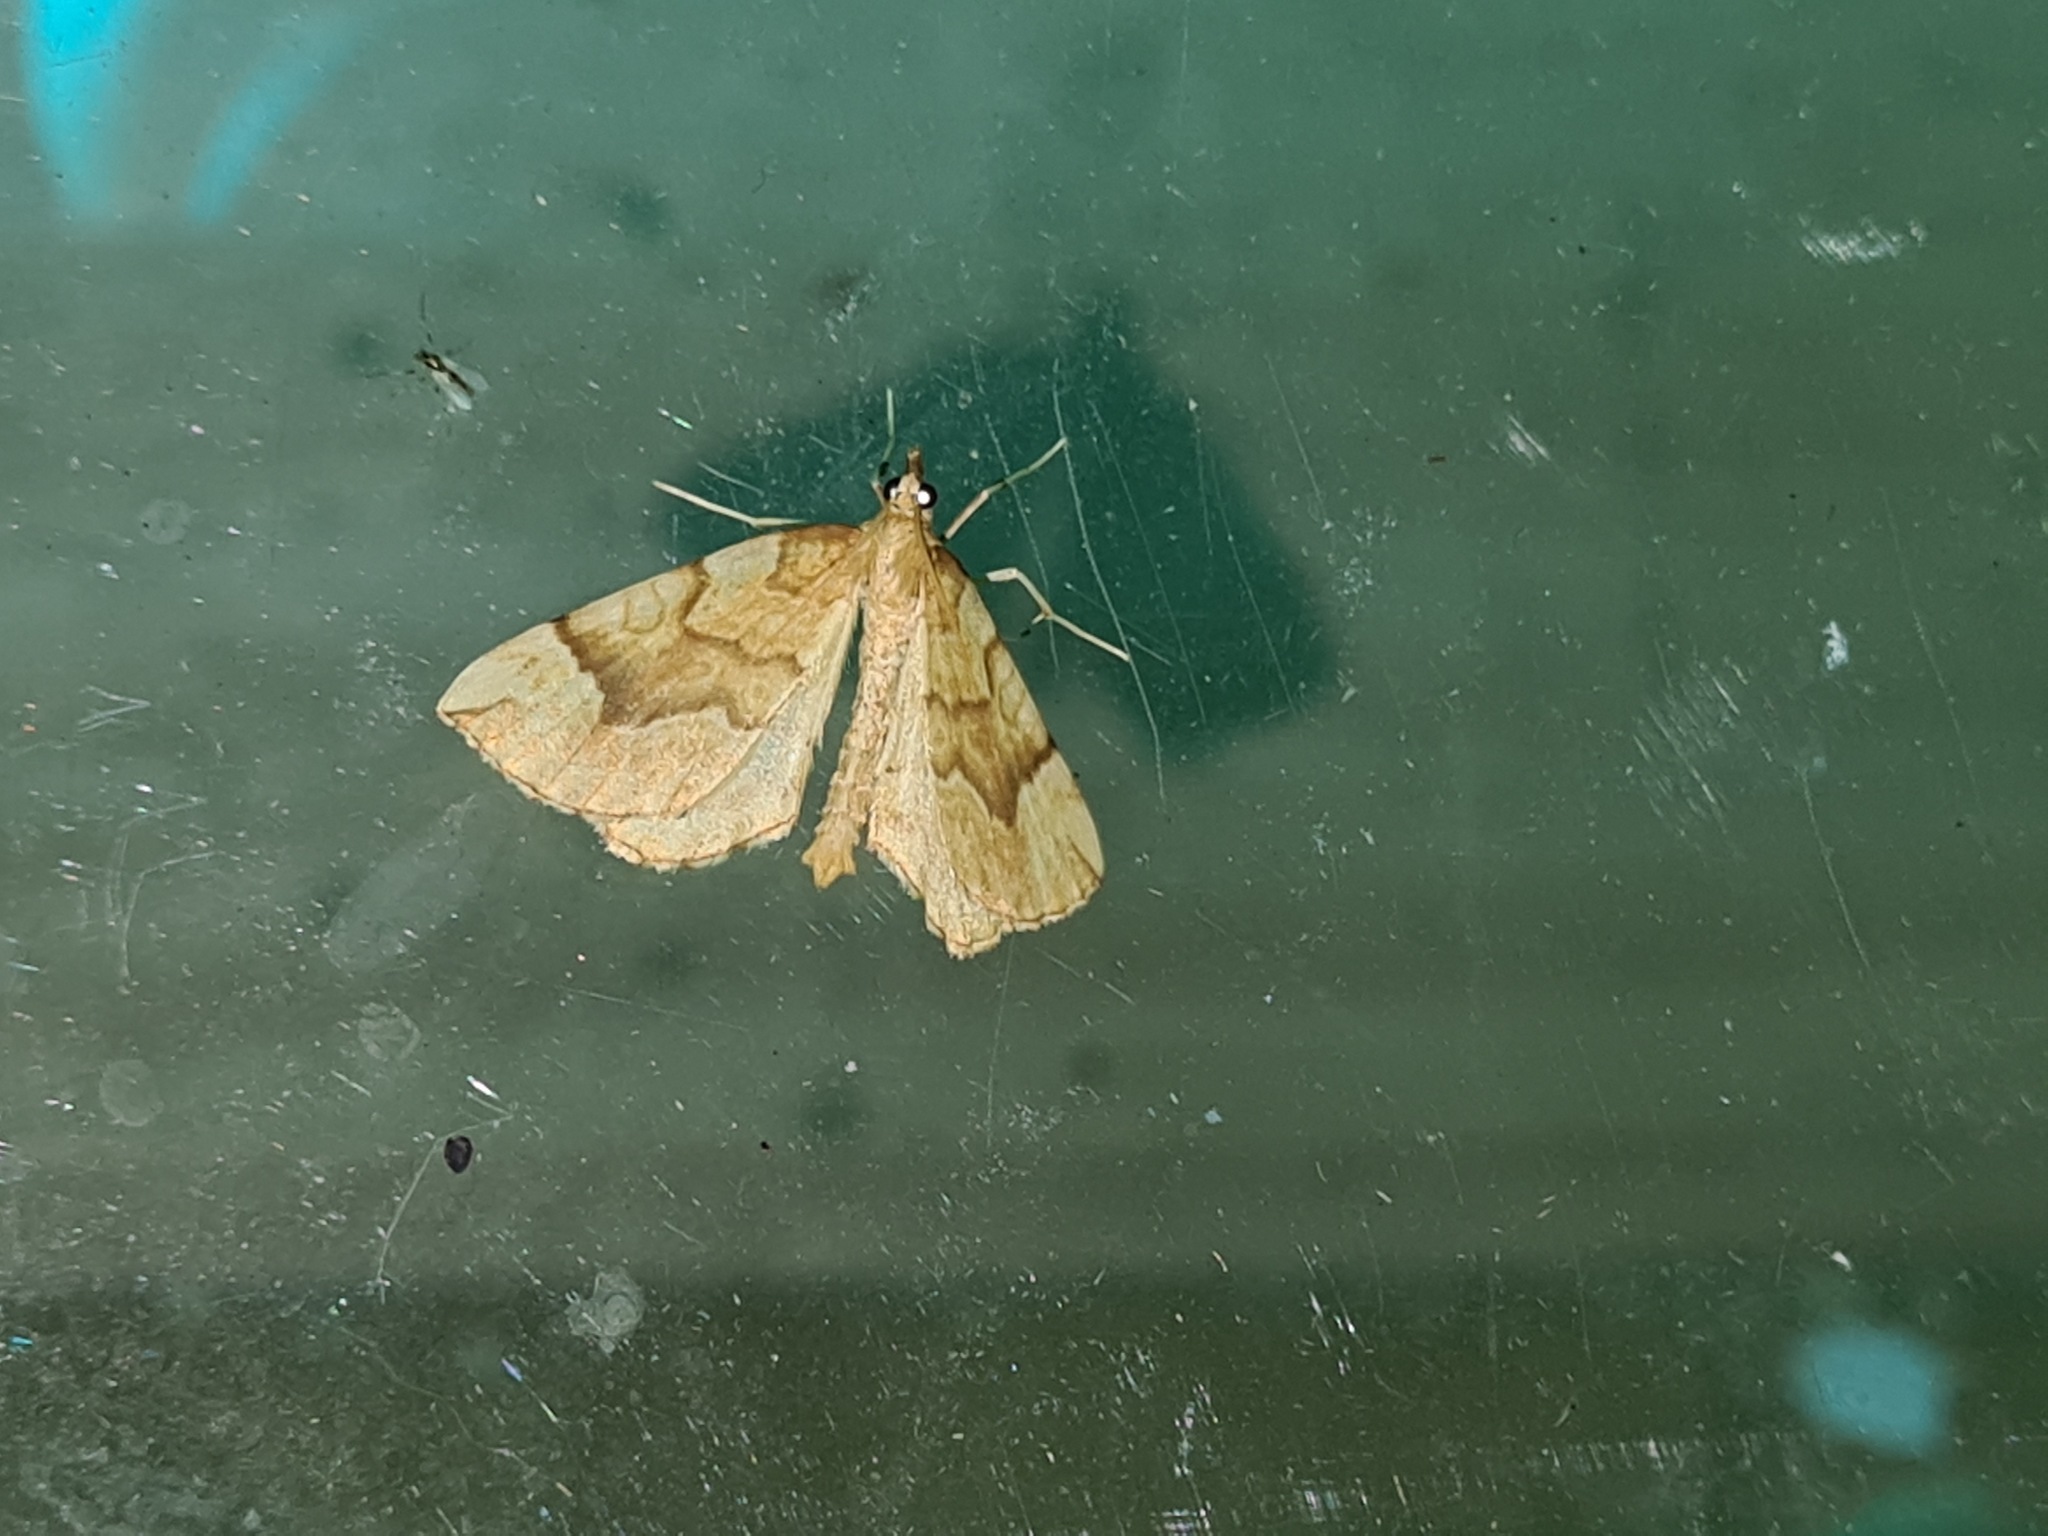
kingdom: Animalia
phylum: Arthropoda
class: Insecta
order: Lepidoptera
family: Geometridae
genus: Eulithis
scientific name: Eulithis mellinata
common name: Spinach
